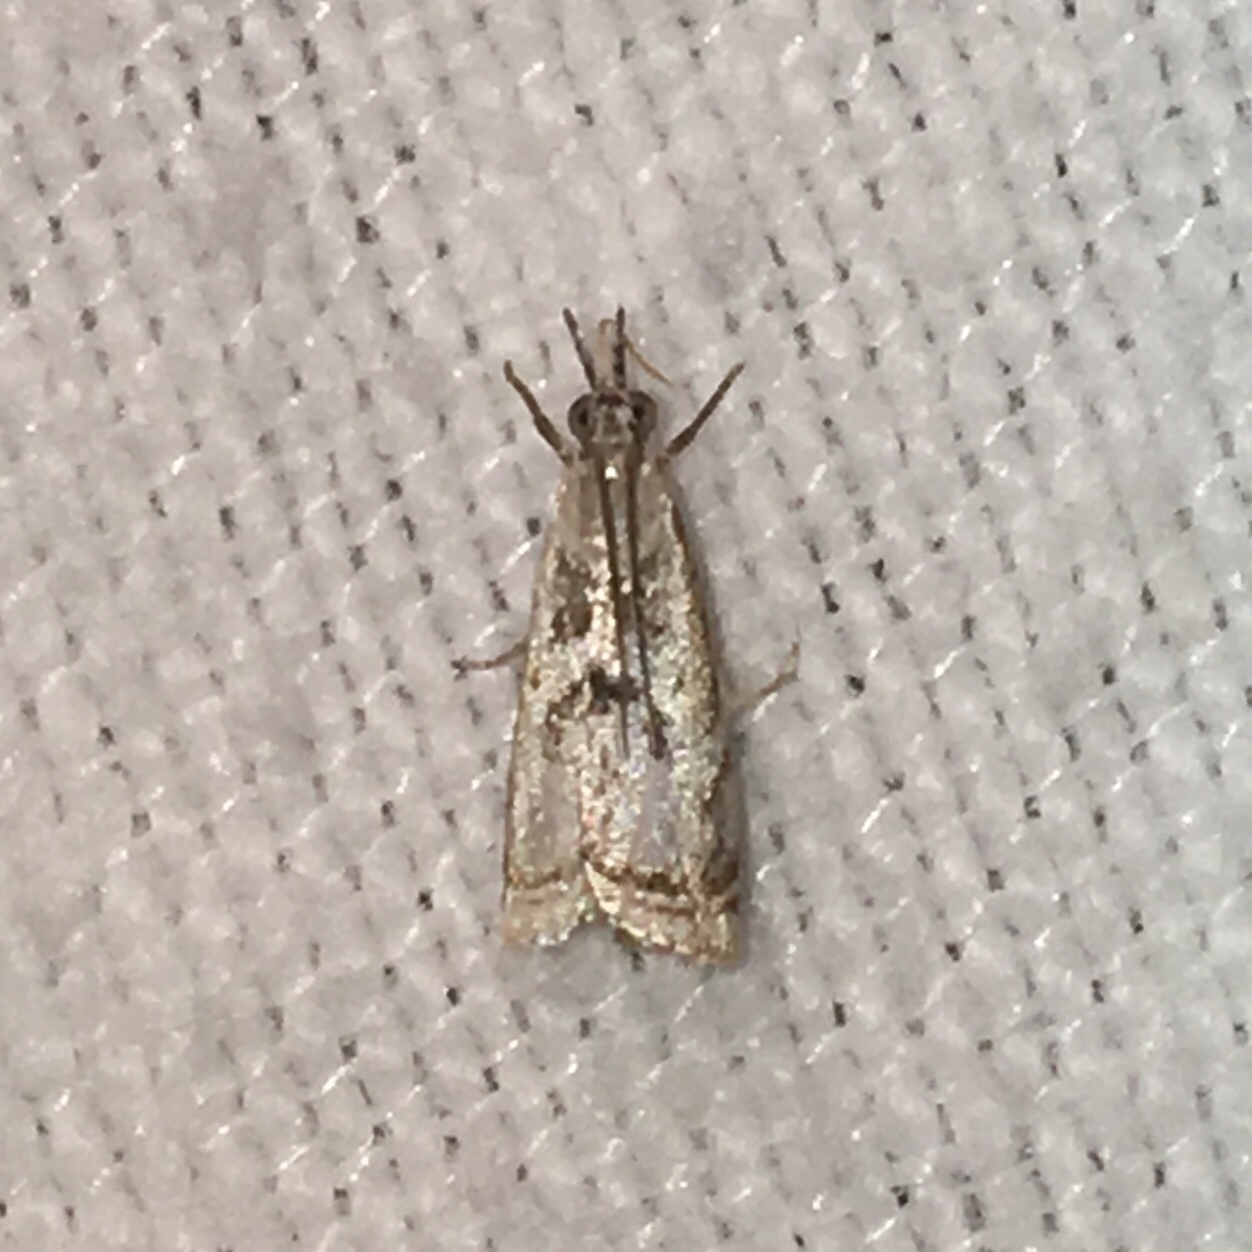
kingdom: Animalia
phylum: Arthropoda
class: Insecta
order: Lepidoptera
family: Crambidae
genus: Microcrambus
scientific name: Microcrambus elegans
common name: Elegant grass-veneer
